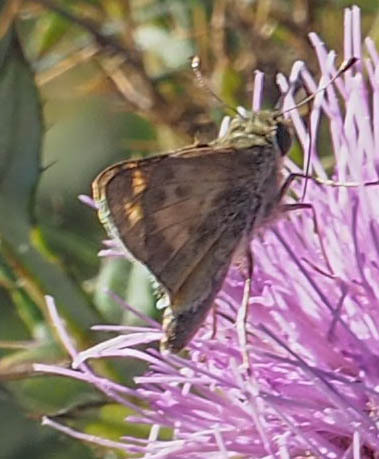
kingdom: Animalia
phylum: Arthropoda
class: Insecta
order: Lepidoptera
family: Hesperiidae
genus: Atalopedes
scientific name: Atalopedes
